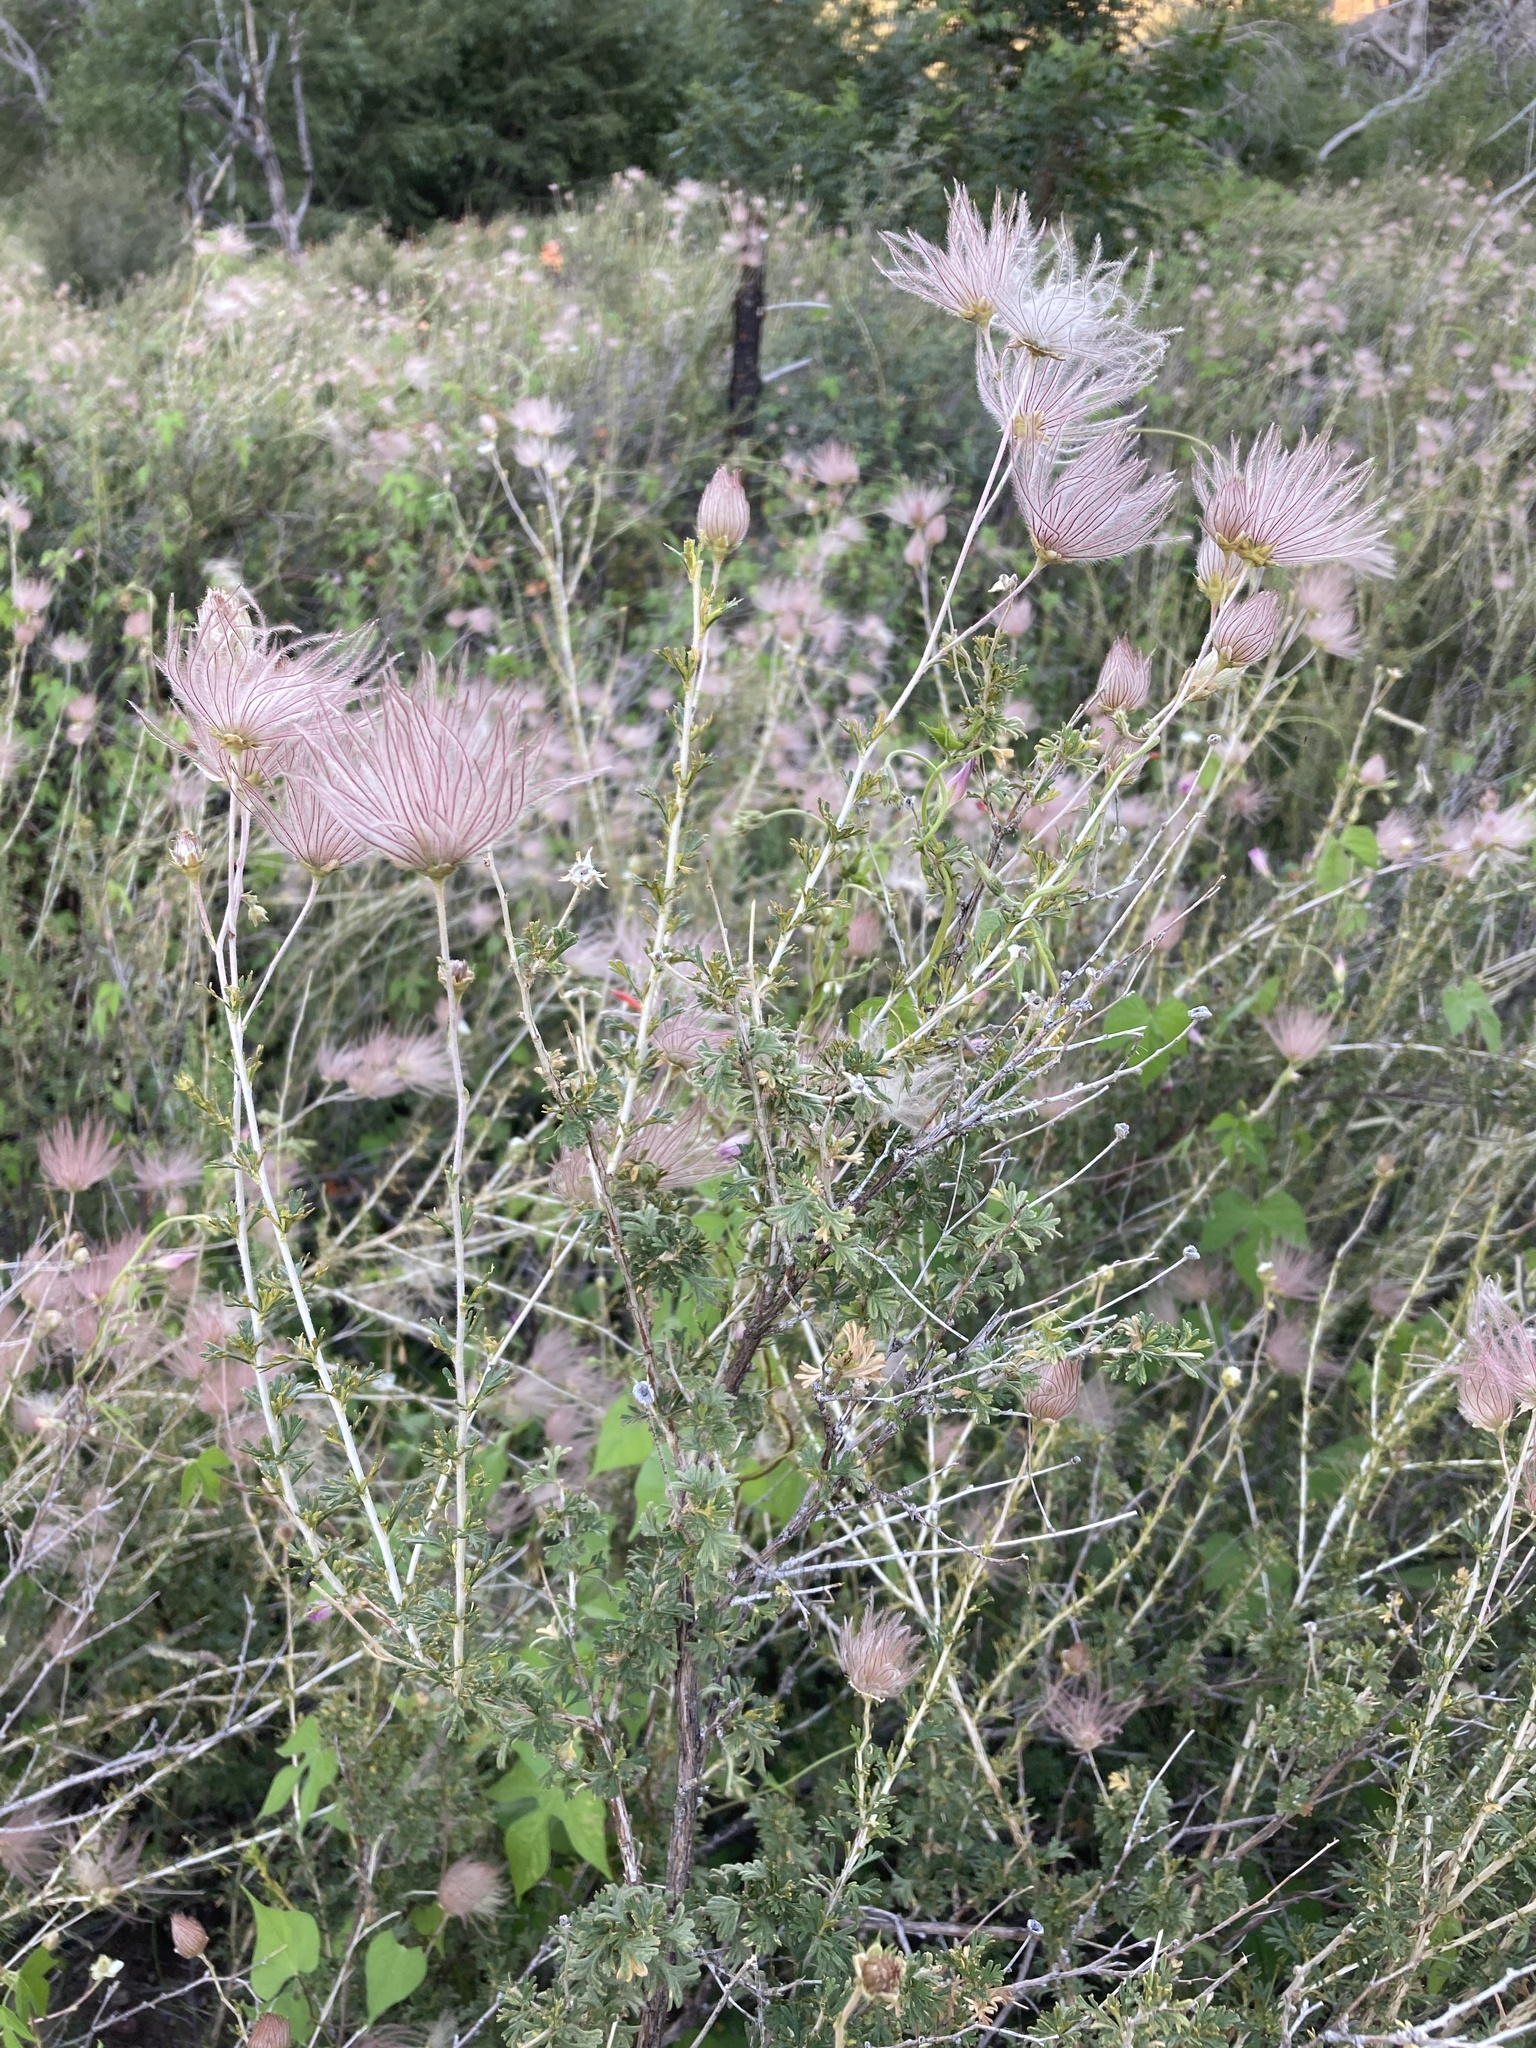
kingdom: Plantae
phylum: Tracheophyta
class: Magnoliopsida
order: Rosales
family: Rosaceae
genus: Fallugia
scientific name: Fallugia paradoxa
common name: Apache-plume
